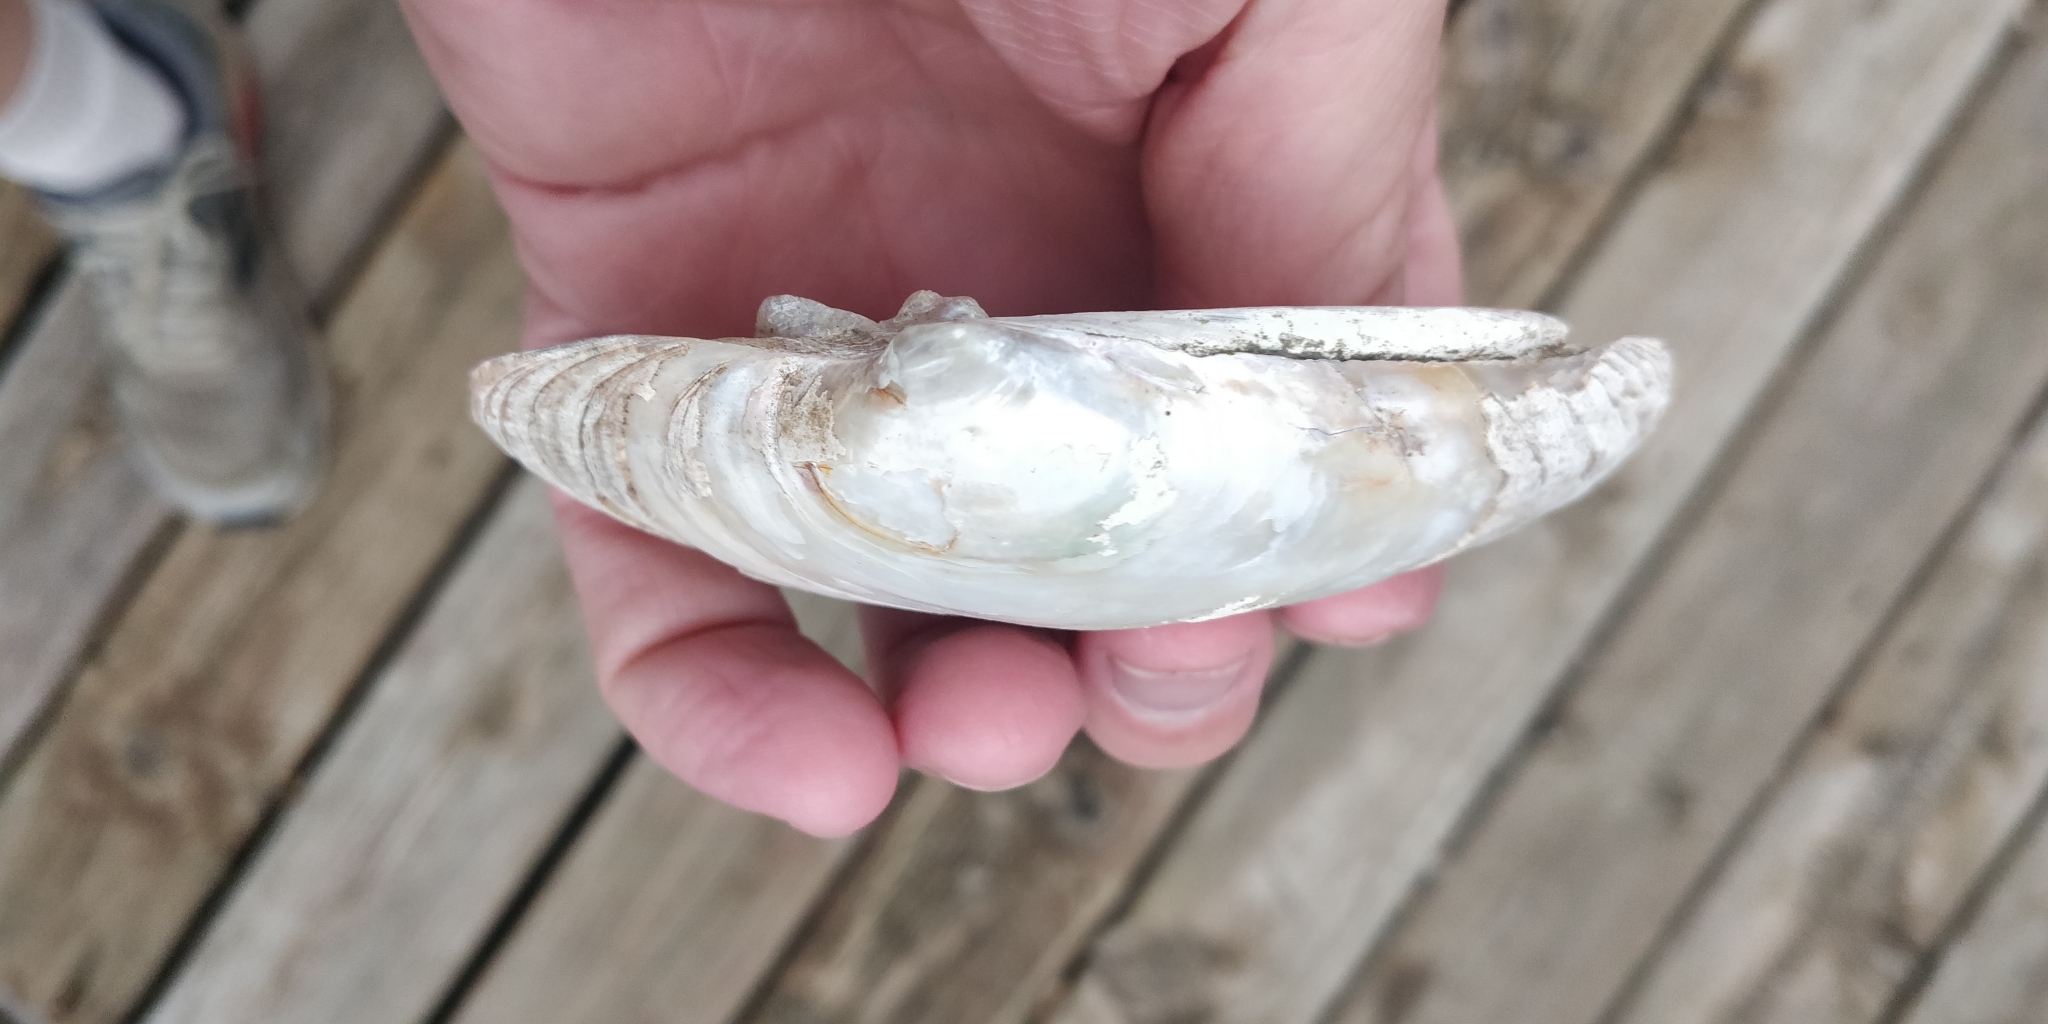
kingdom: Animalia
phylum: Mollusca
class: Bivalvia
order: Unionida
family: Unionidae
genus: Lampsilis
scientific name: Lampsilis cardium
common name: Plain pocketbook
